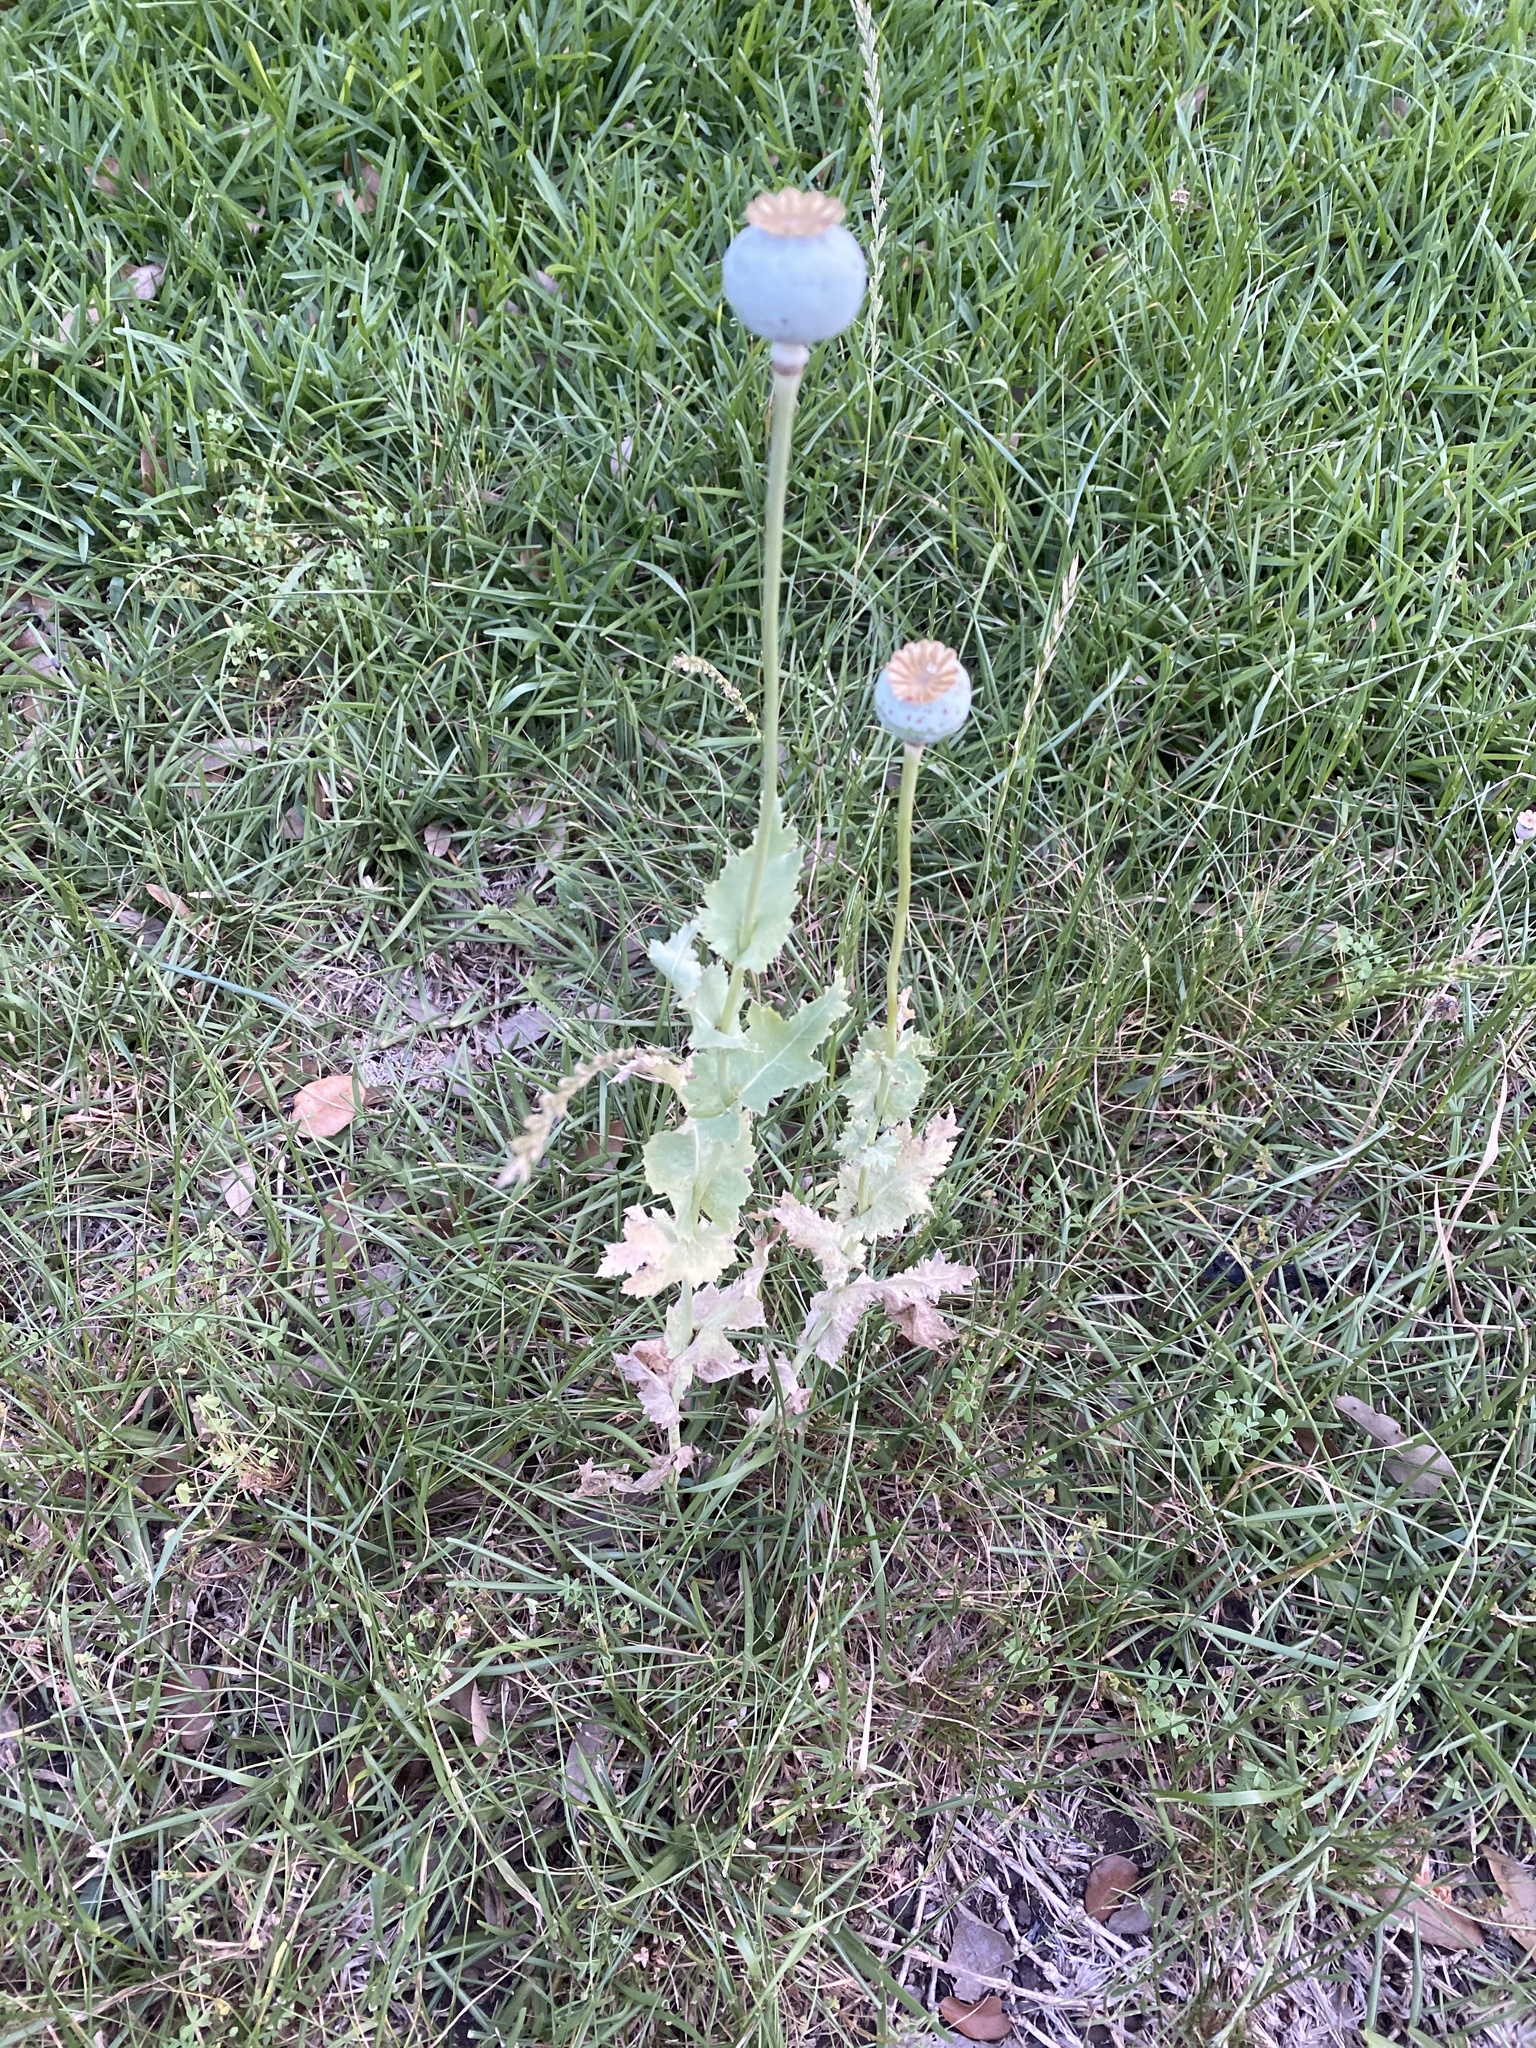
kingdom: Plantae
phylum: Tracheophyta
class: Magnoliopsida
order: Ranunculales
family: Papaveraceae
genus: Papaver
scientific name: Papaver somniferum
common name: Opium poppy
